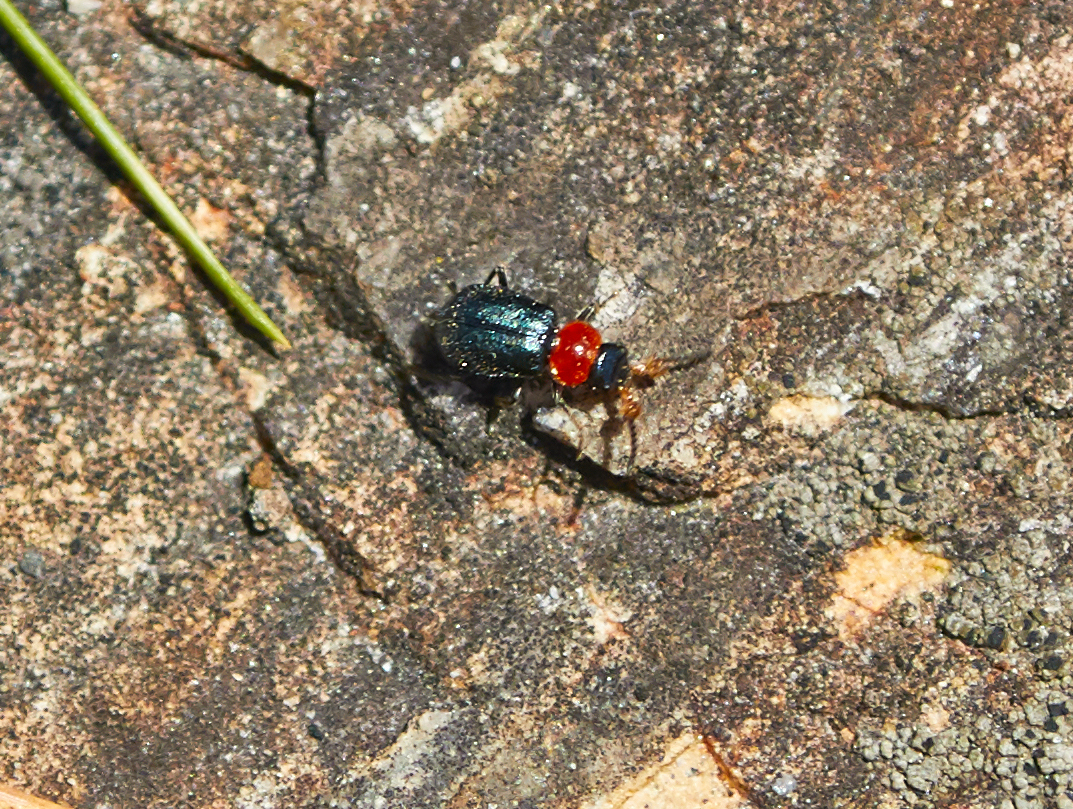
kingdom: Animalia
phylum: Arthropoda
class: Insecta
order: Coleoptera
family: Melyridae
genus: Collops
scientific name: Collops tricolor
